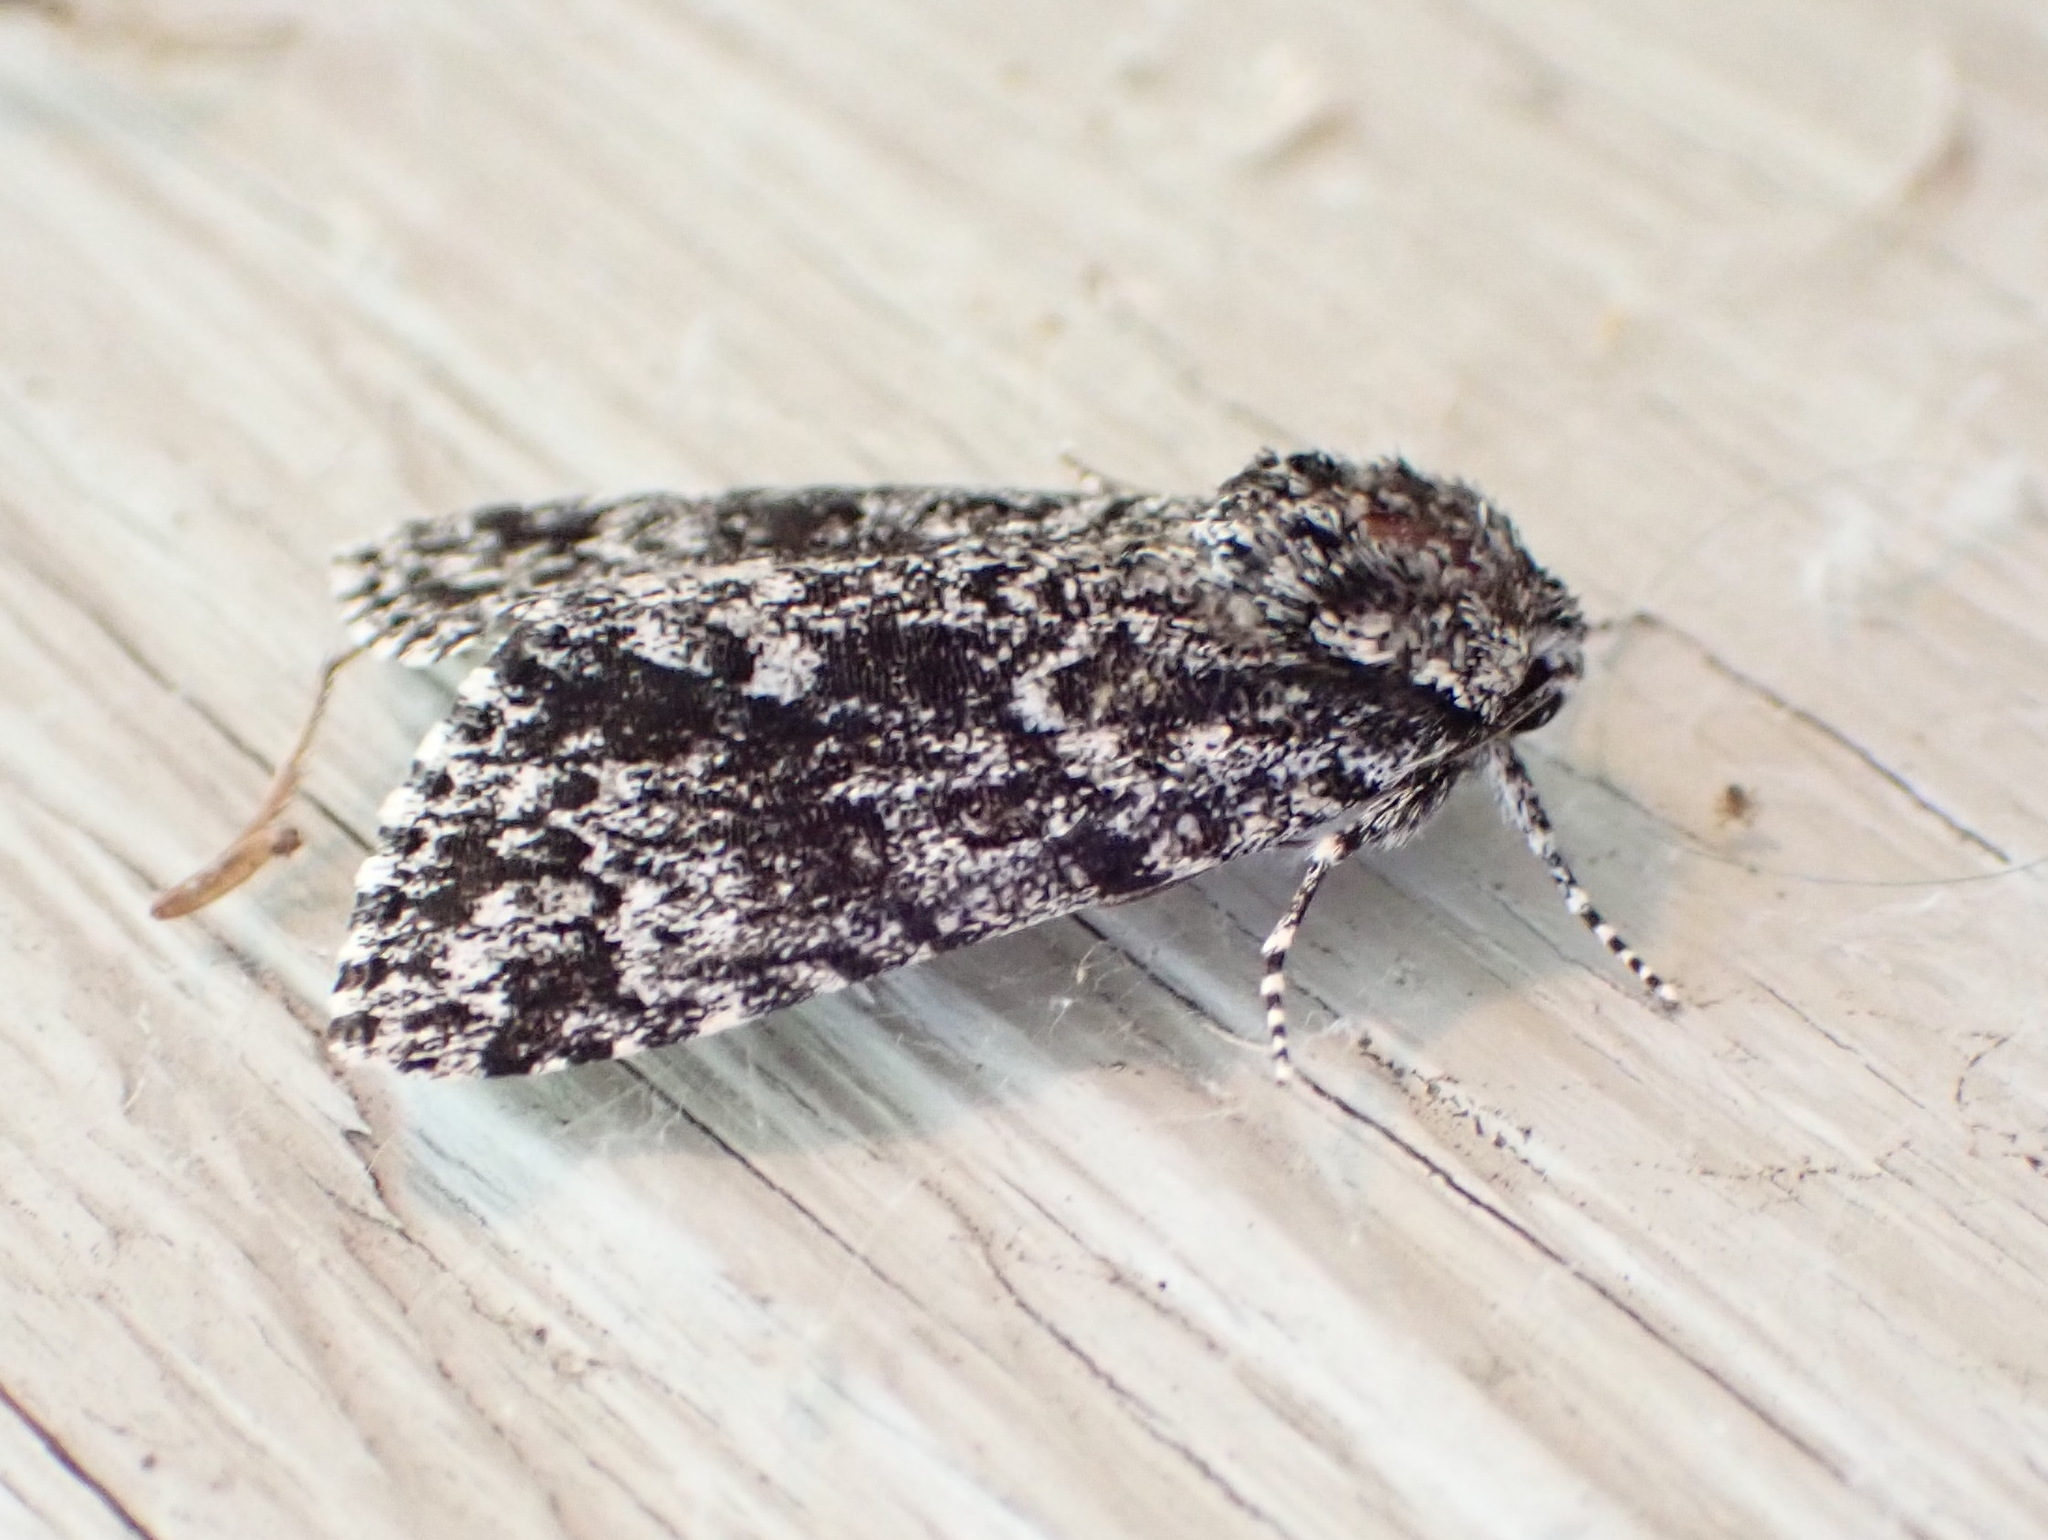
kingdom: Animalia
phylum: Arthropoda
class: Insecta
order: Lepidoptera
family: Noctuidae
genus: Acronicta
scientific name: Acronicta noctivaga
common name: Night-wandering dagger
